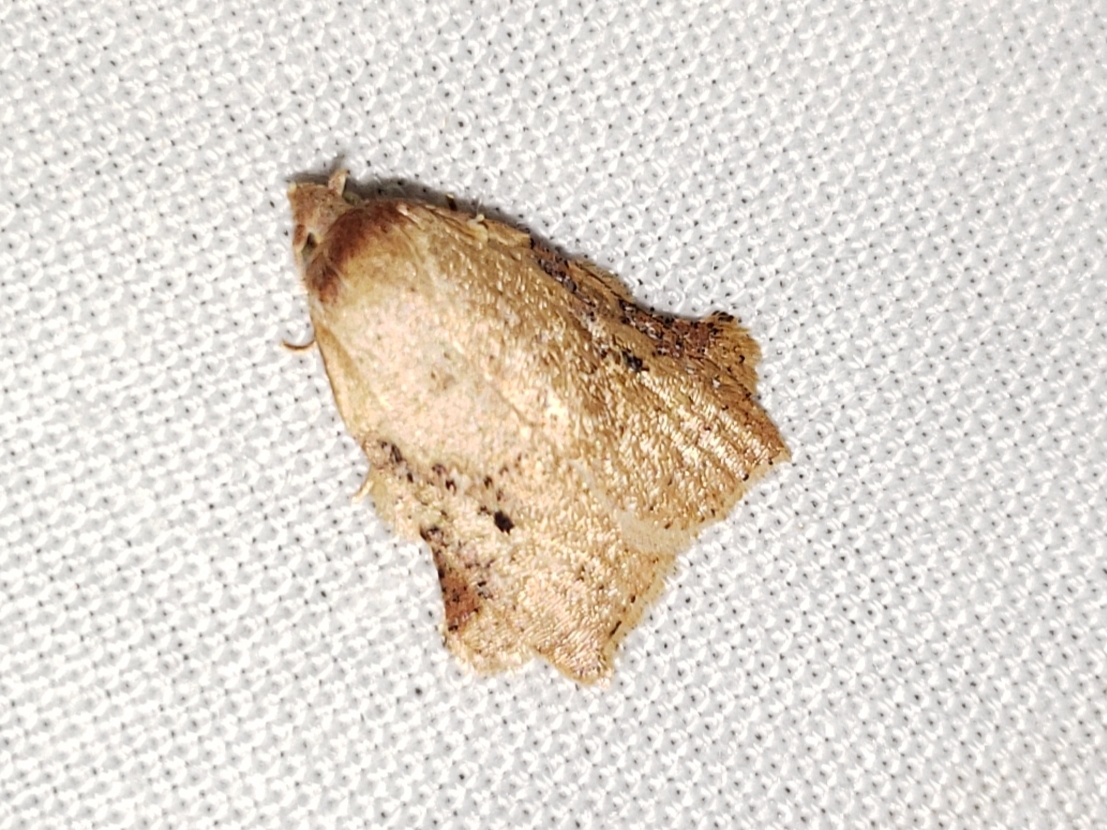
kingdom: Animalia
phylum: Arthropoda
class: Insecta
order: Lepidoptera
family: Tortricidae
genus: Amorbia
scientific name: Amorbia concavana
